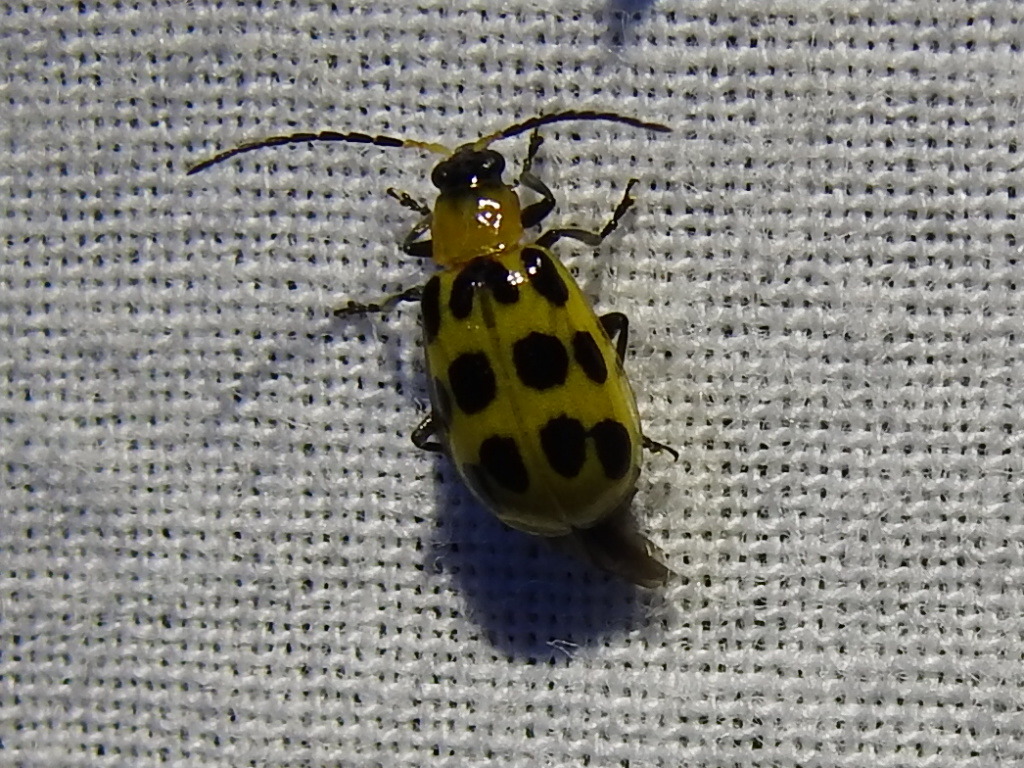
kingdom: Animalia
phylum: Arthropoda
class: Insecta
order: Coleoptera
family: Chrysomelidae
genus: Diabrotica
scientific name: Diabrotica undecimpunctata
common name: Spotted cucumber beetle
